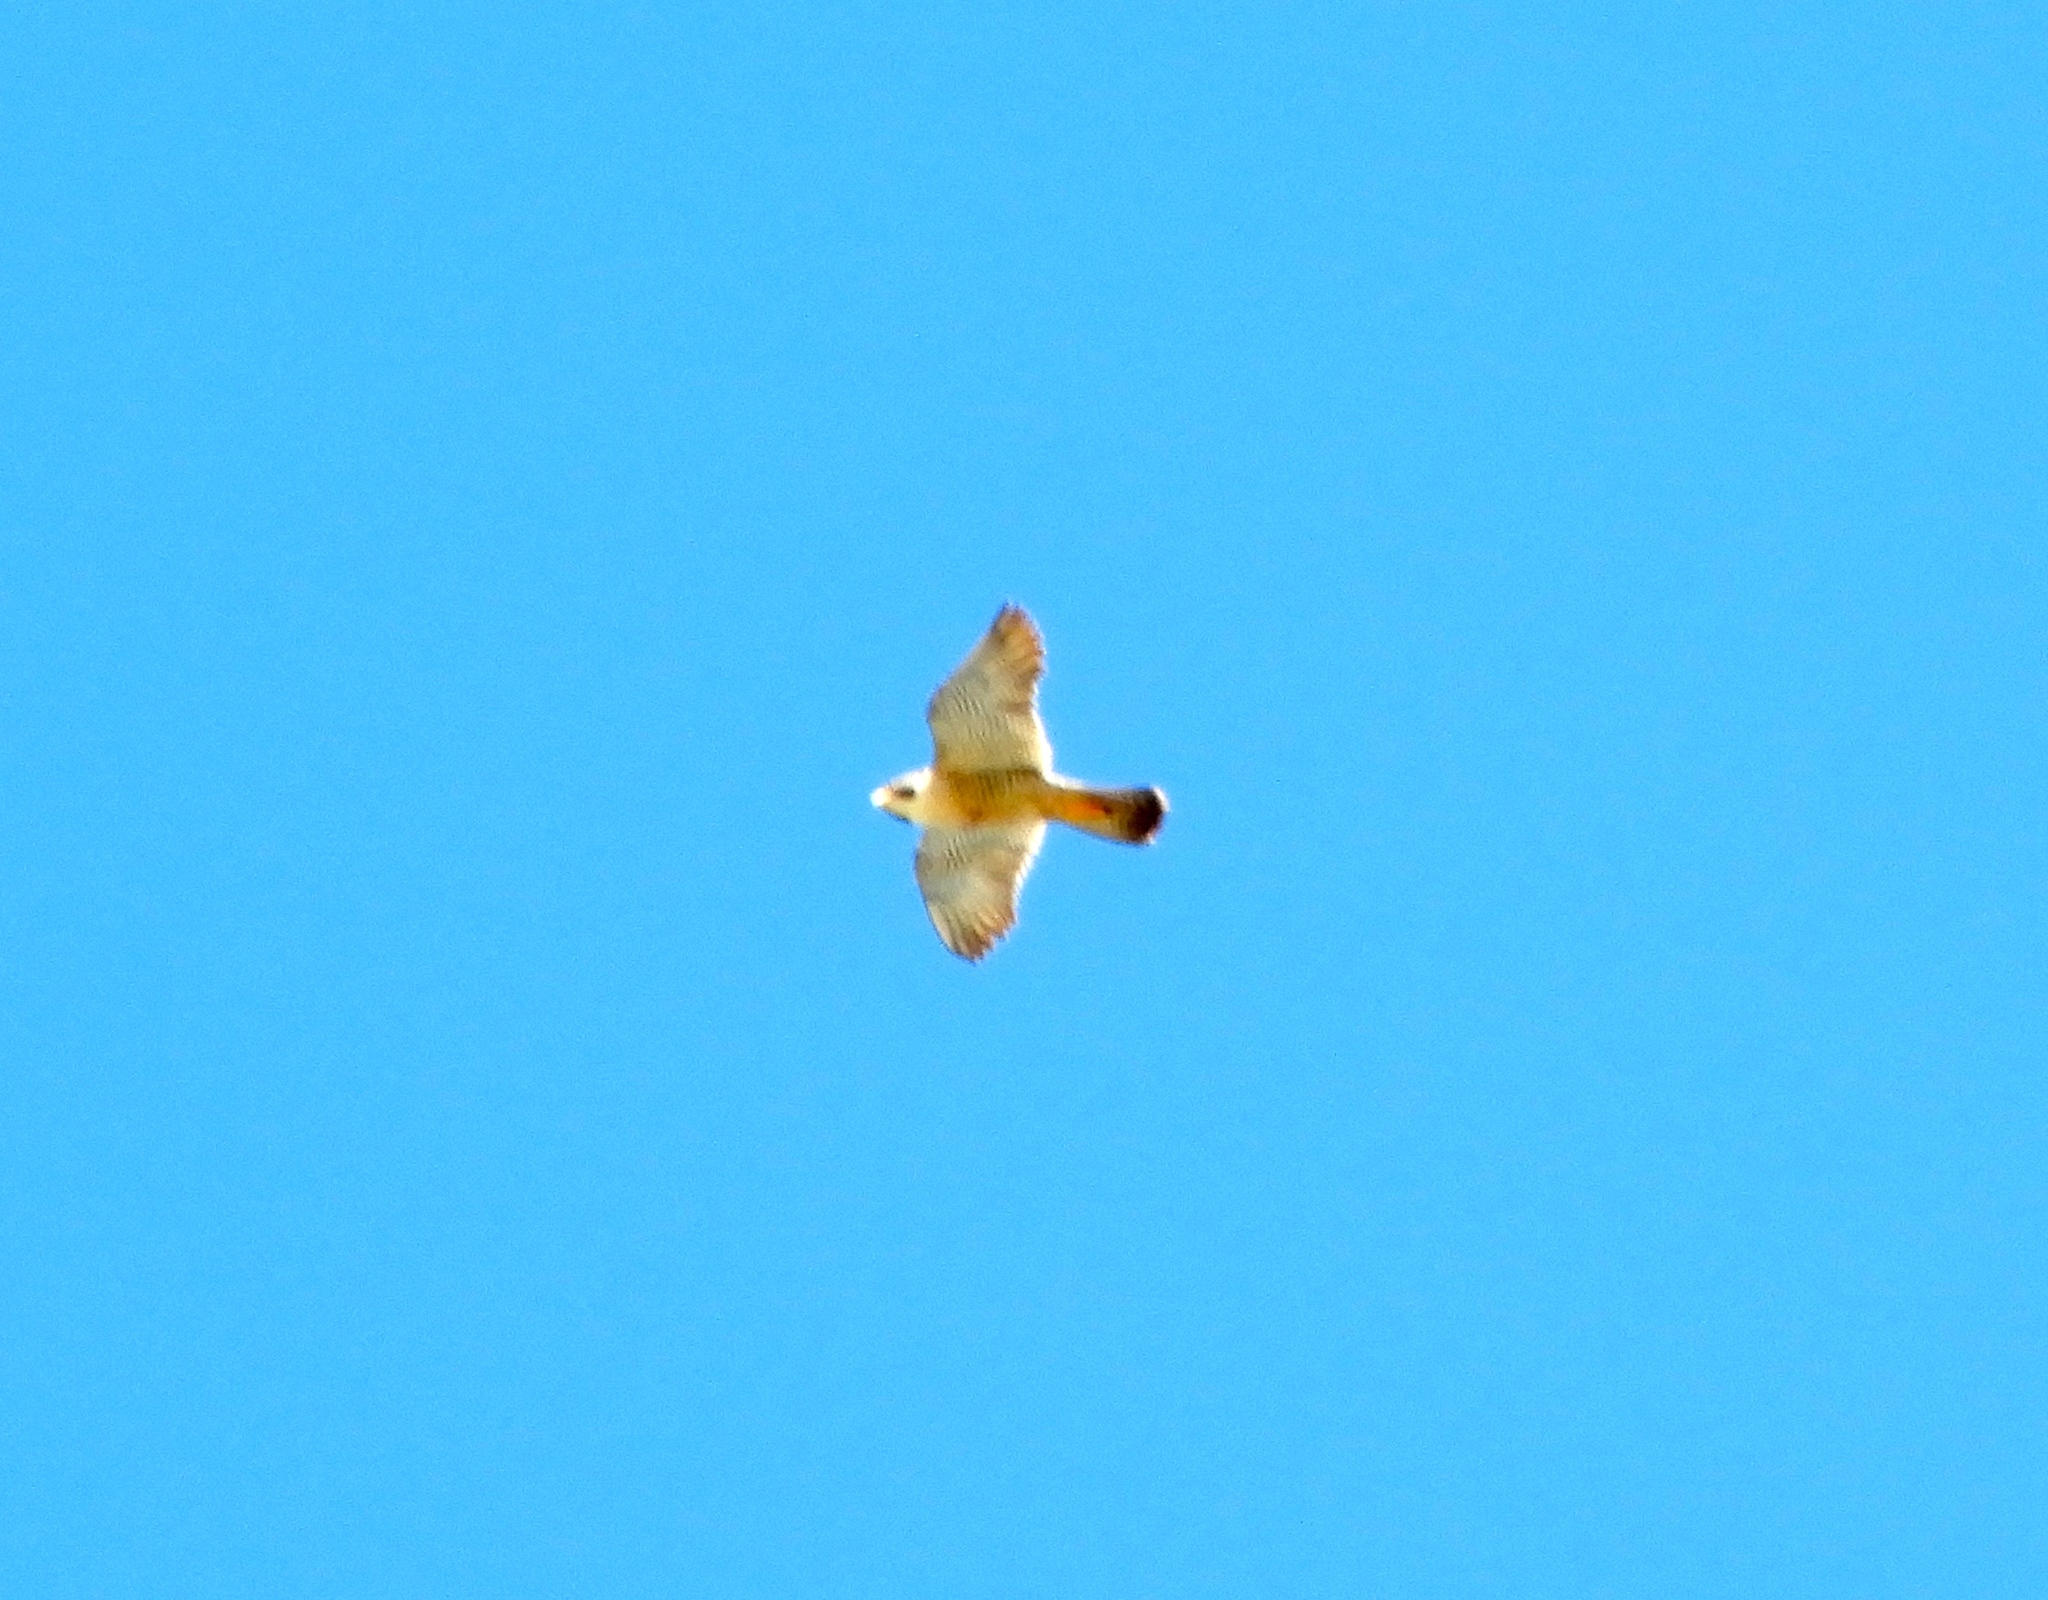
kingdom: Animalia
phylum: Chordata
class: Aves
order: Falconiformes
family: Falconidae
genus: Falco
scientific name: Falco peregrinus
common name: Peregrine falcon
